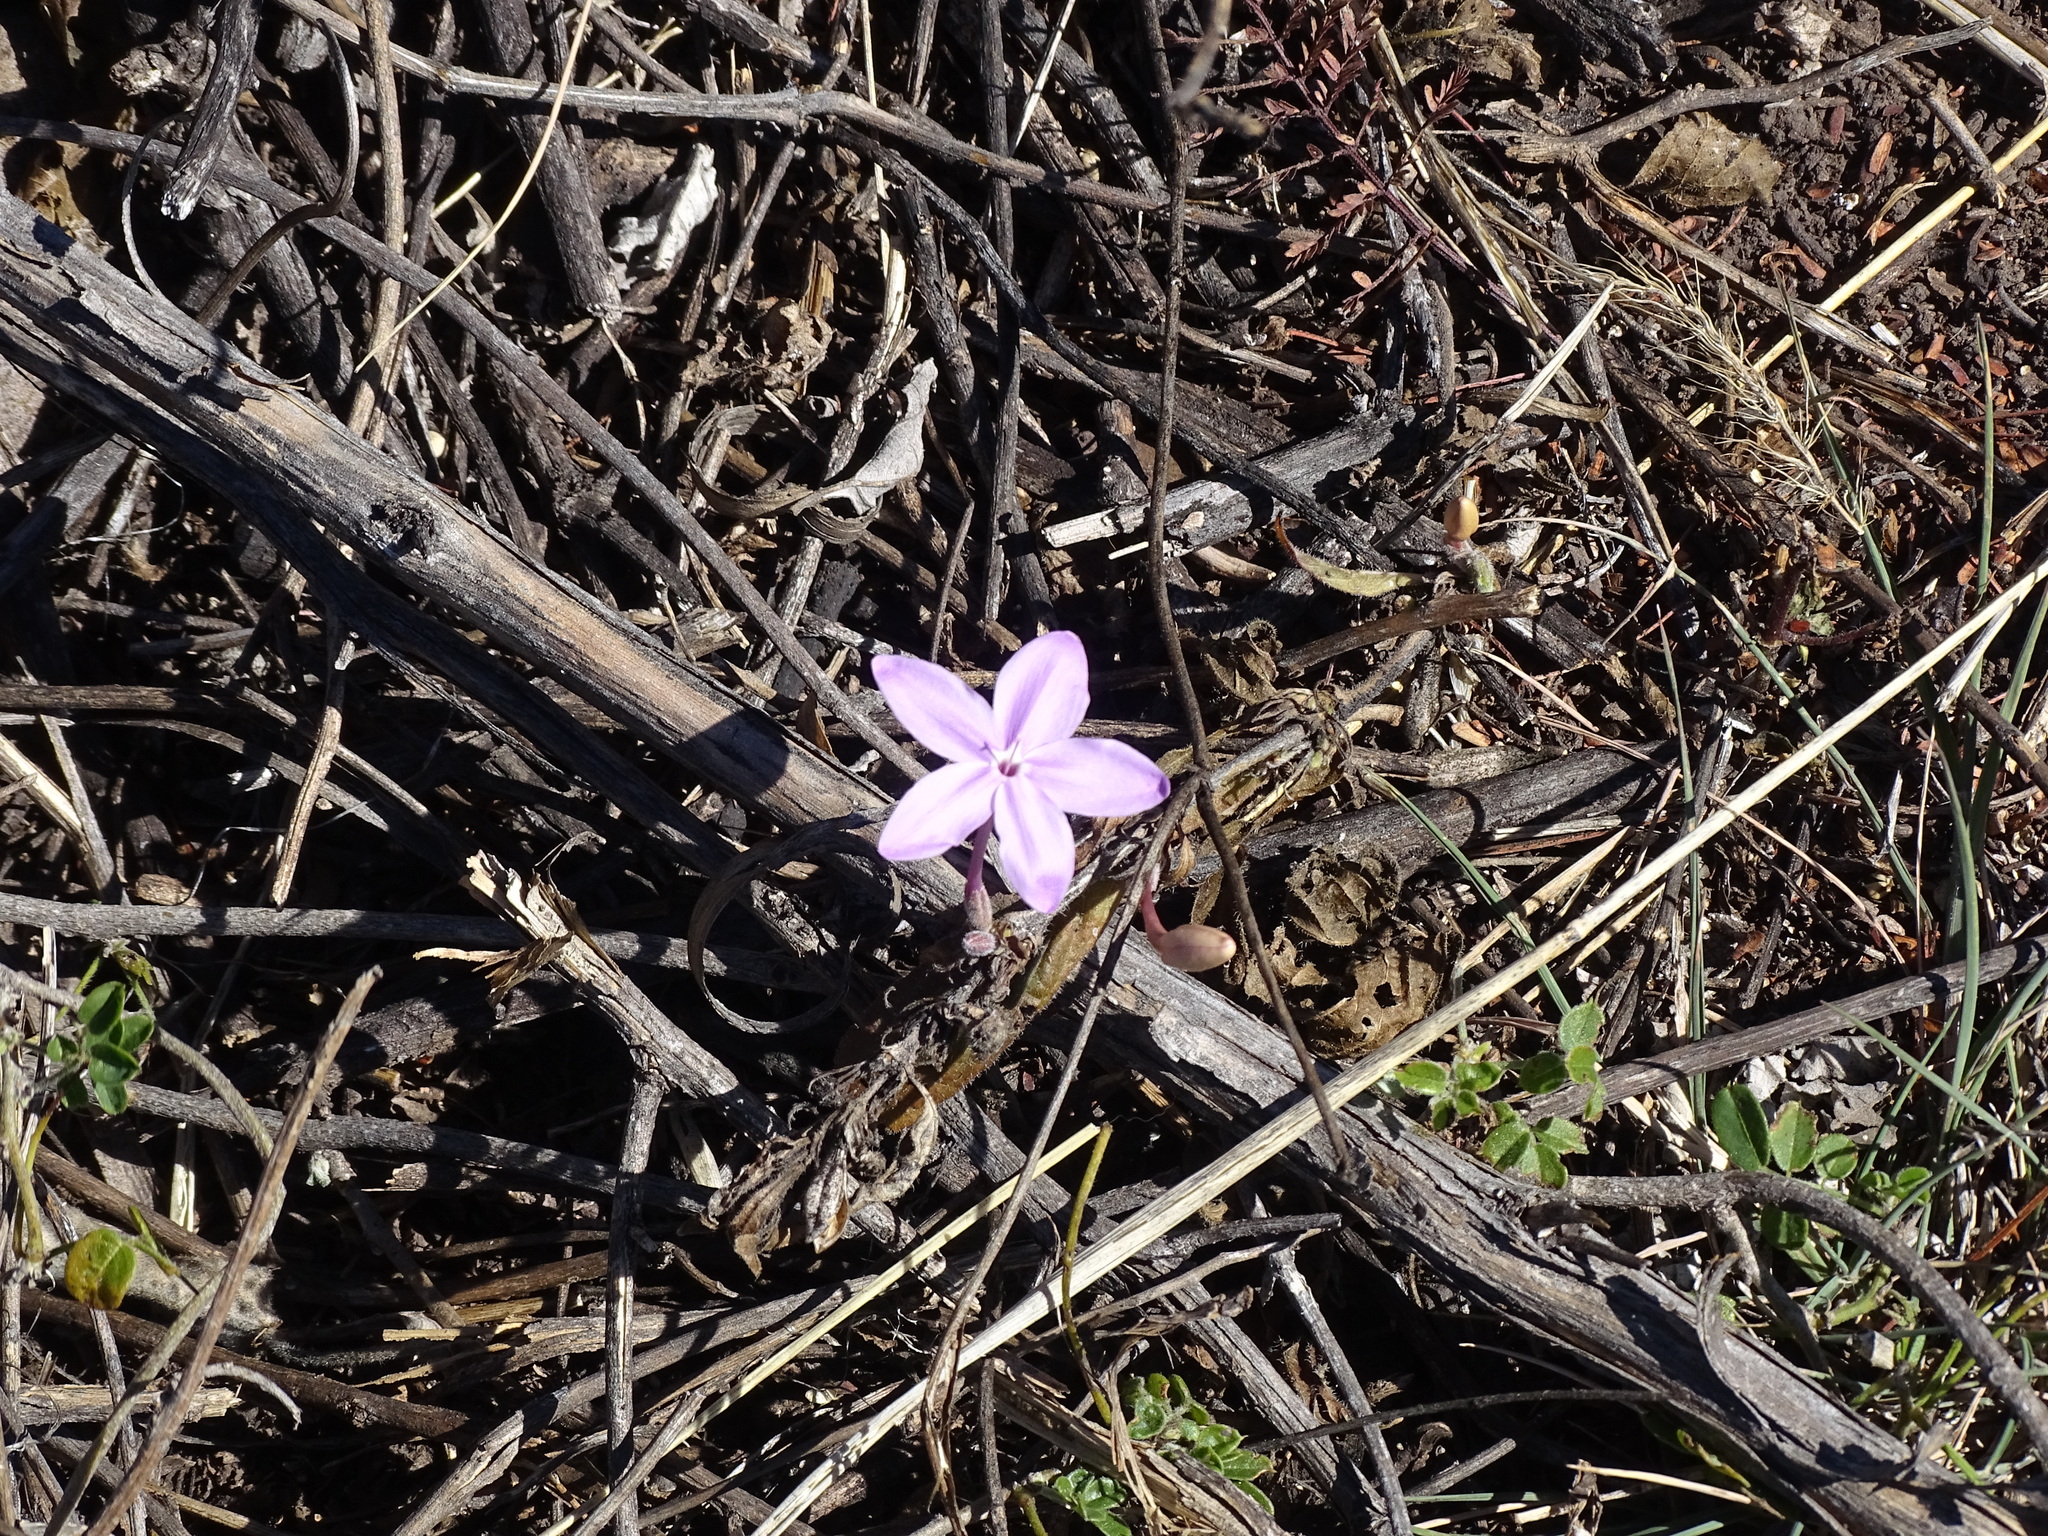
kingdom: Plantae
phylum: Tracheophyta
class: Magnoliopsida
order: Lamiales
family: Acanthaceae
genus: Pseuderanthemum
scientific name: Pseuderanthemum praecox
